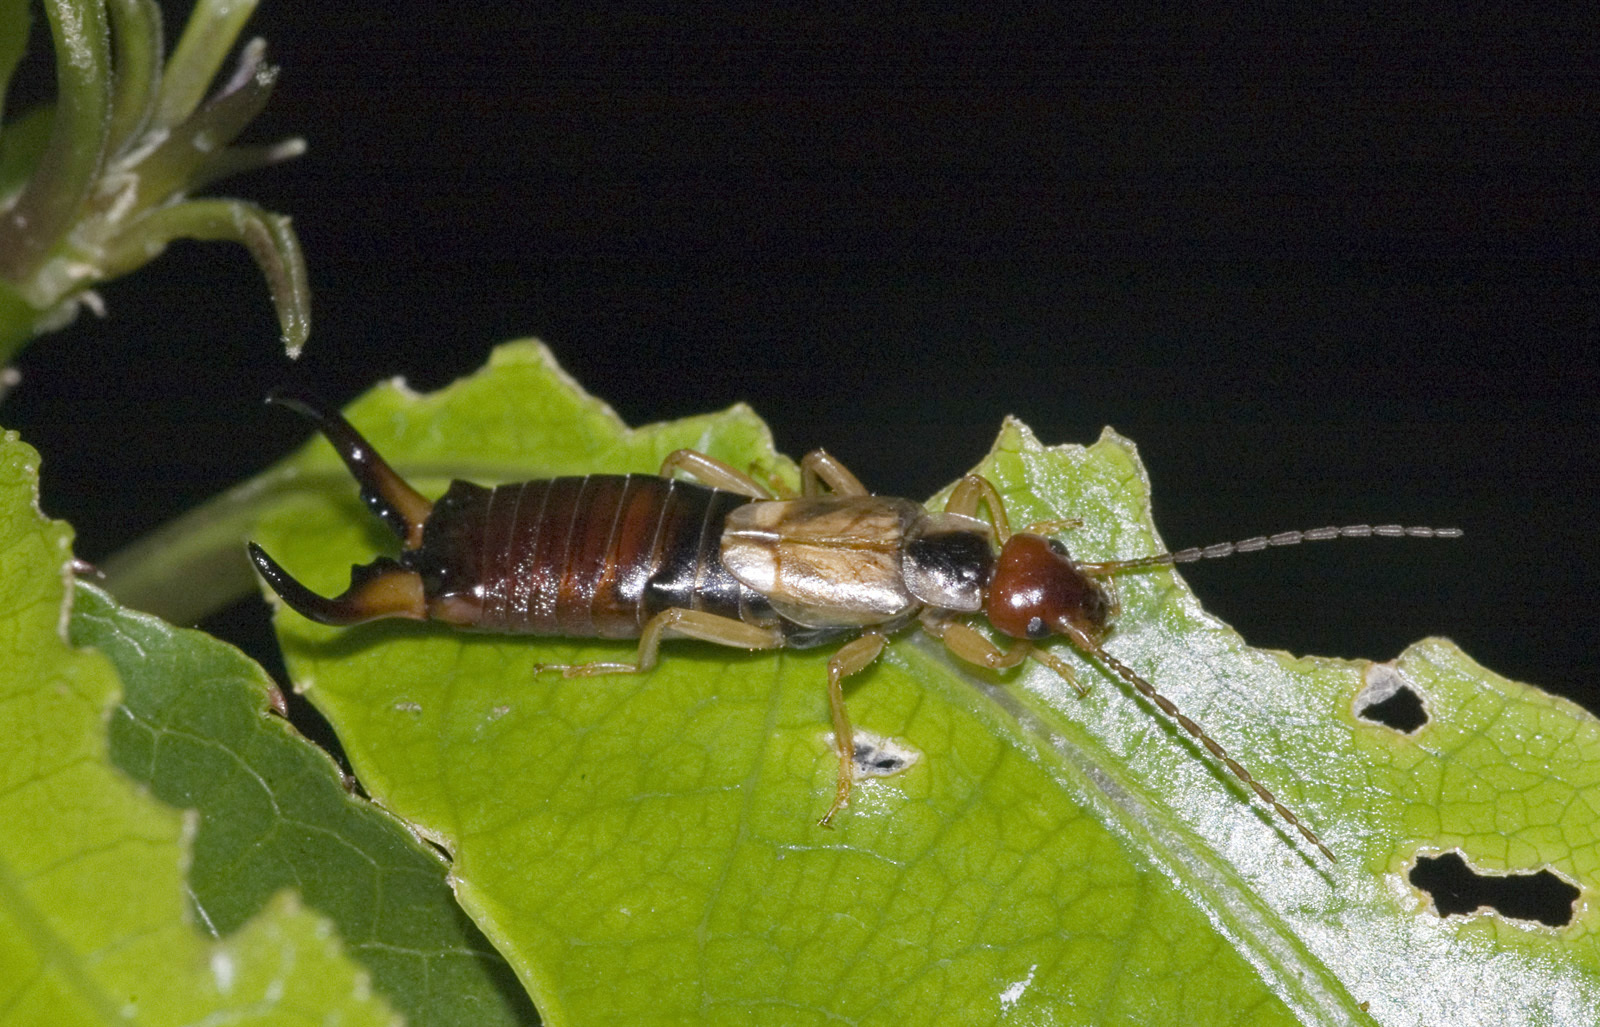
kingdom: Animalia
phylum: Arthropoda
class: Insecta
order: Dermaptera
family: Forficulidae
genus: Forficula
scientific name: Forficula
